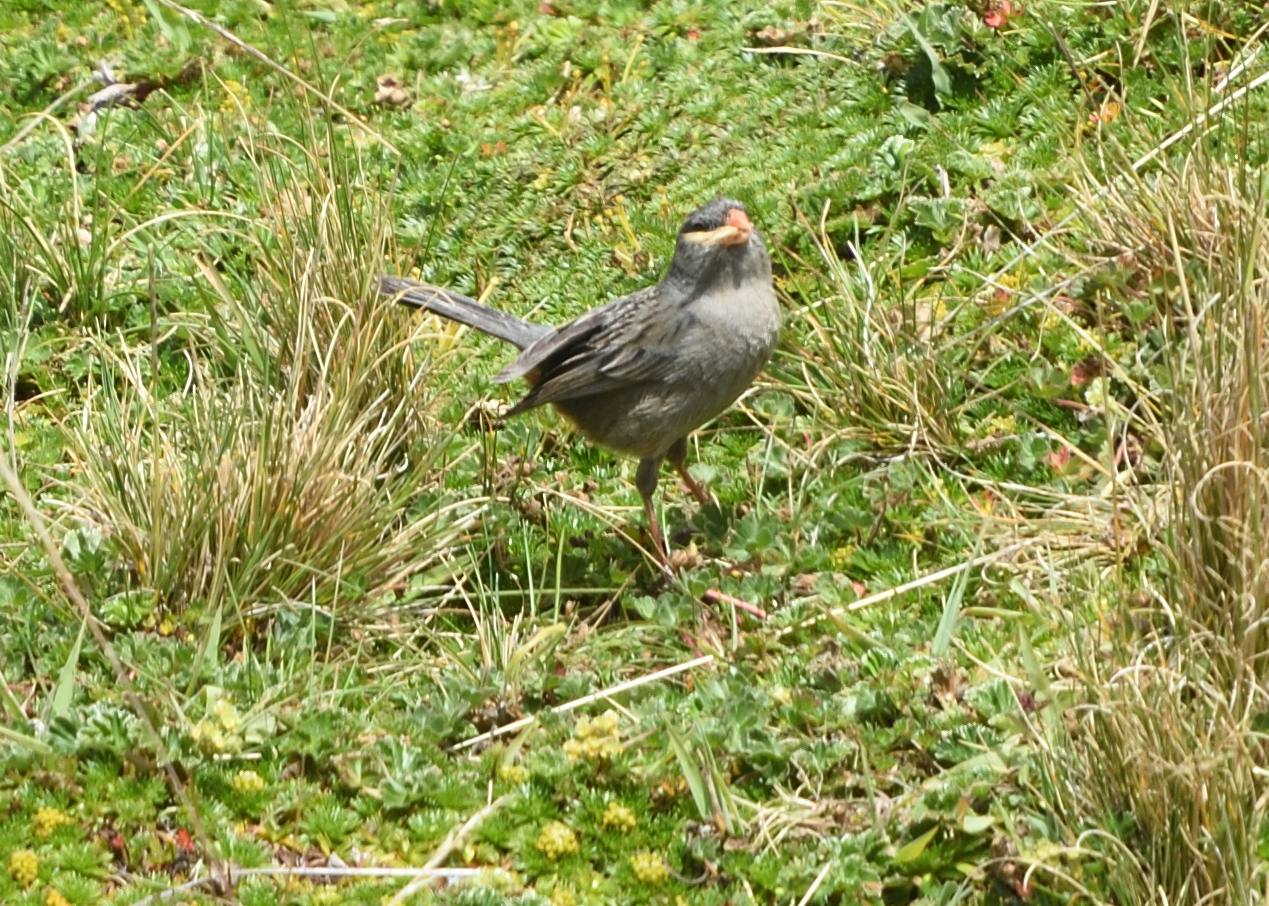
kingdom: Animalia
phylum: Chordata
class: Aves
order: Passeriformes
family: Thraupidae
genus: Catamenia
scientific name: Catamenia inornata
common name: Plain-colored seedeater
